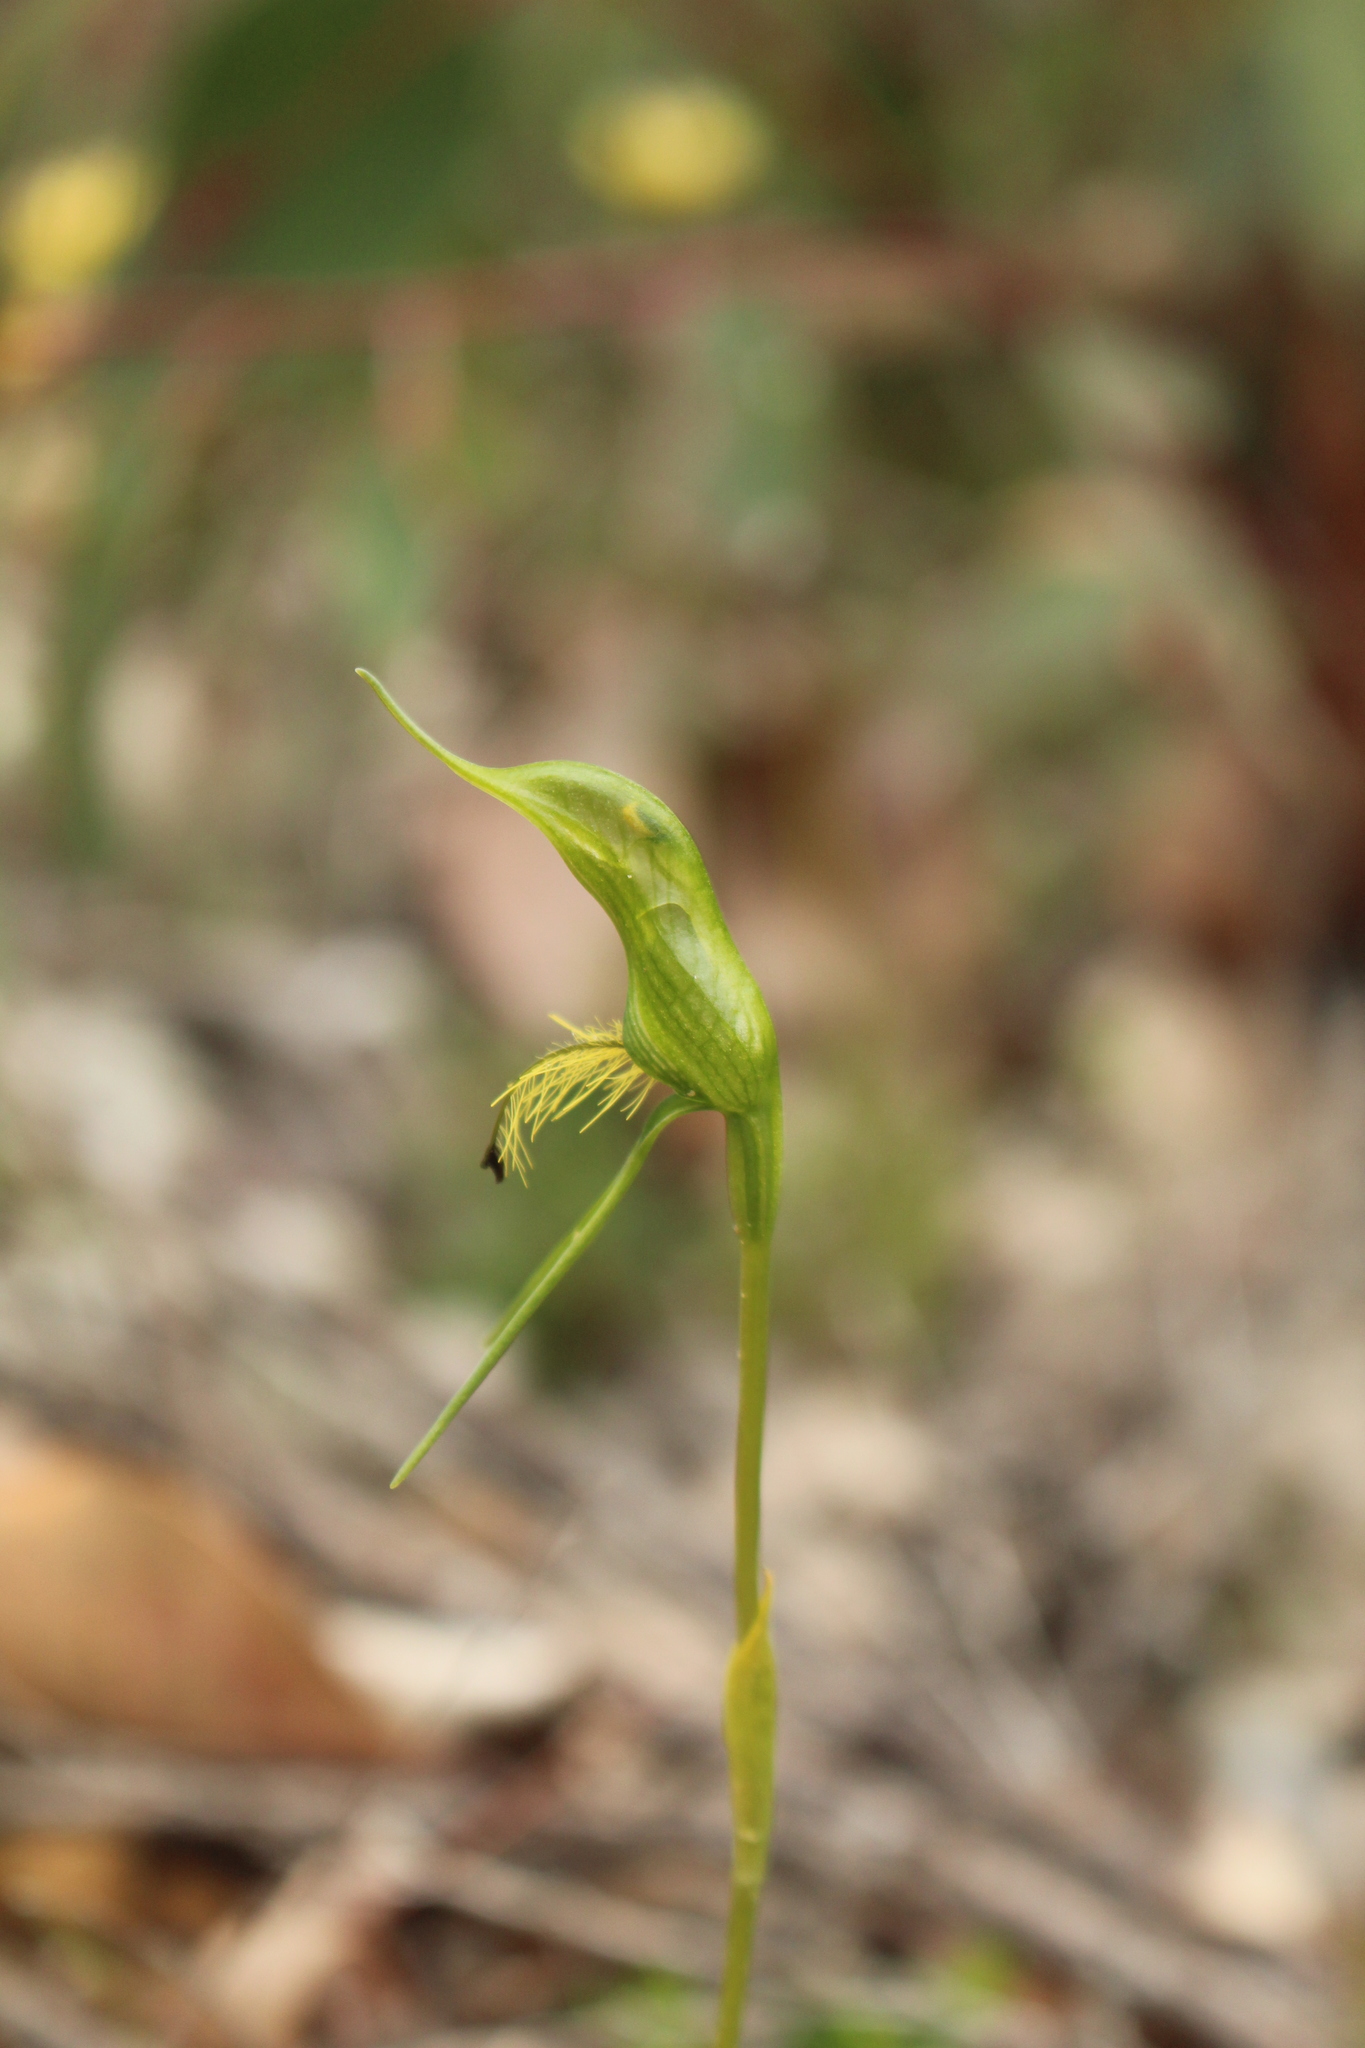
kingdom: Plantae
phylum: Tracheophyta
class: Liliopsida
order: Asparagales
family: Orchidaceae
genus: Pterostylis
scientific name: Pterostylis turfosa
